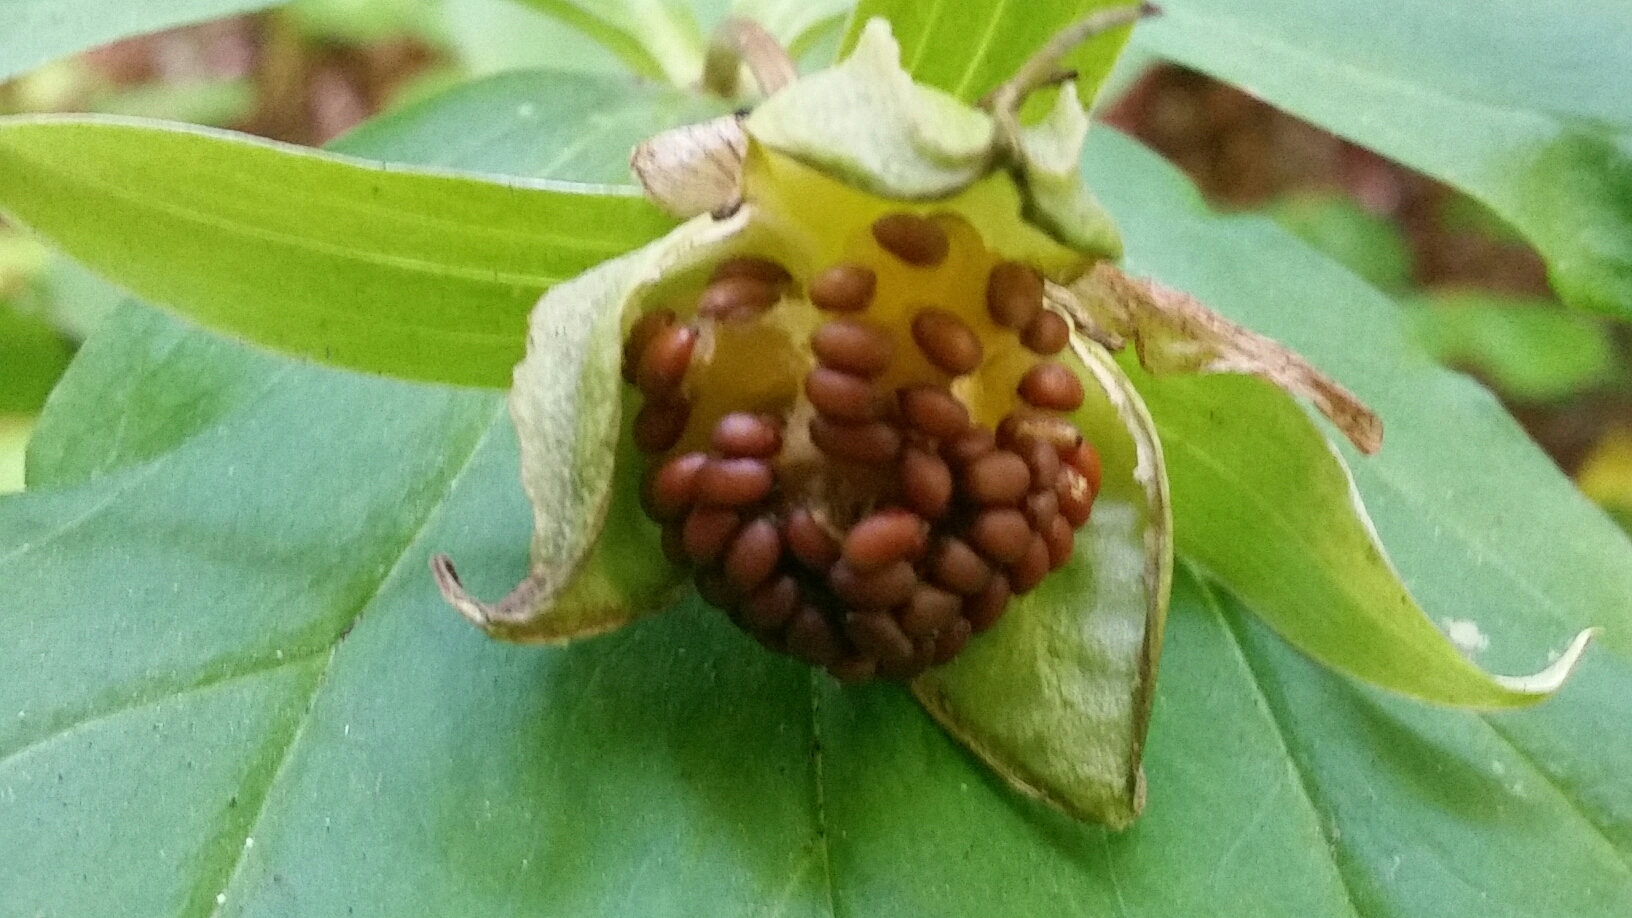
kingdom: Plantae
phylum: Tracheophyta
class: Liliopsida
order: Liliales
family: Melanthiaceae
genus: Trillium
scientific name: Trillium ovatum
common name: Pacific trillium
